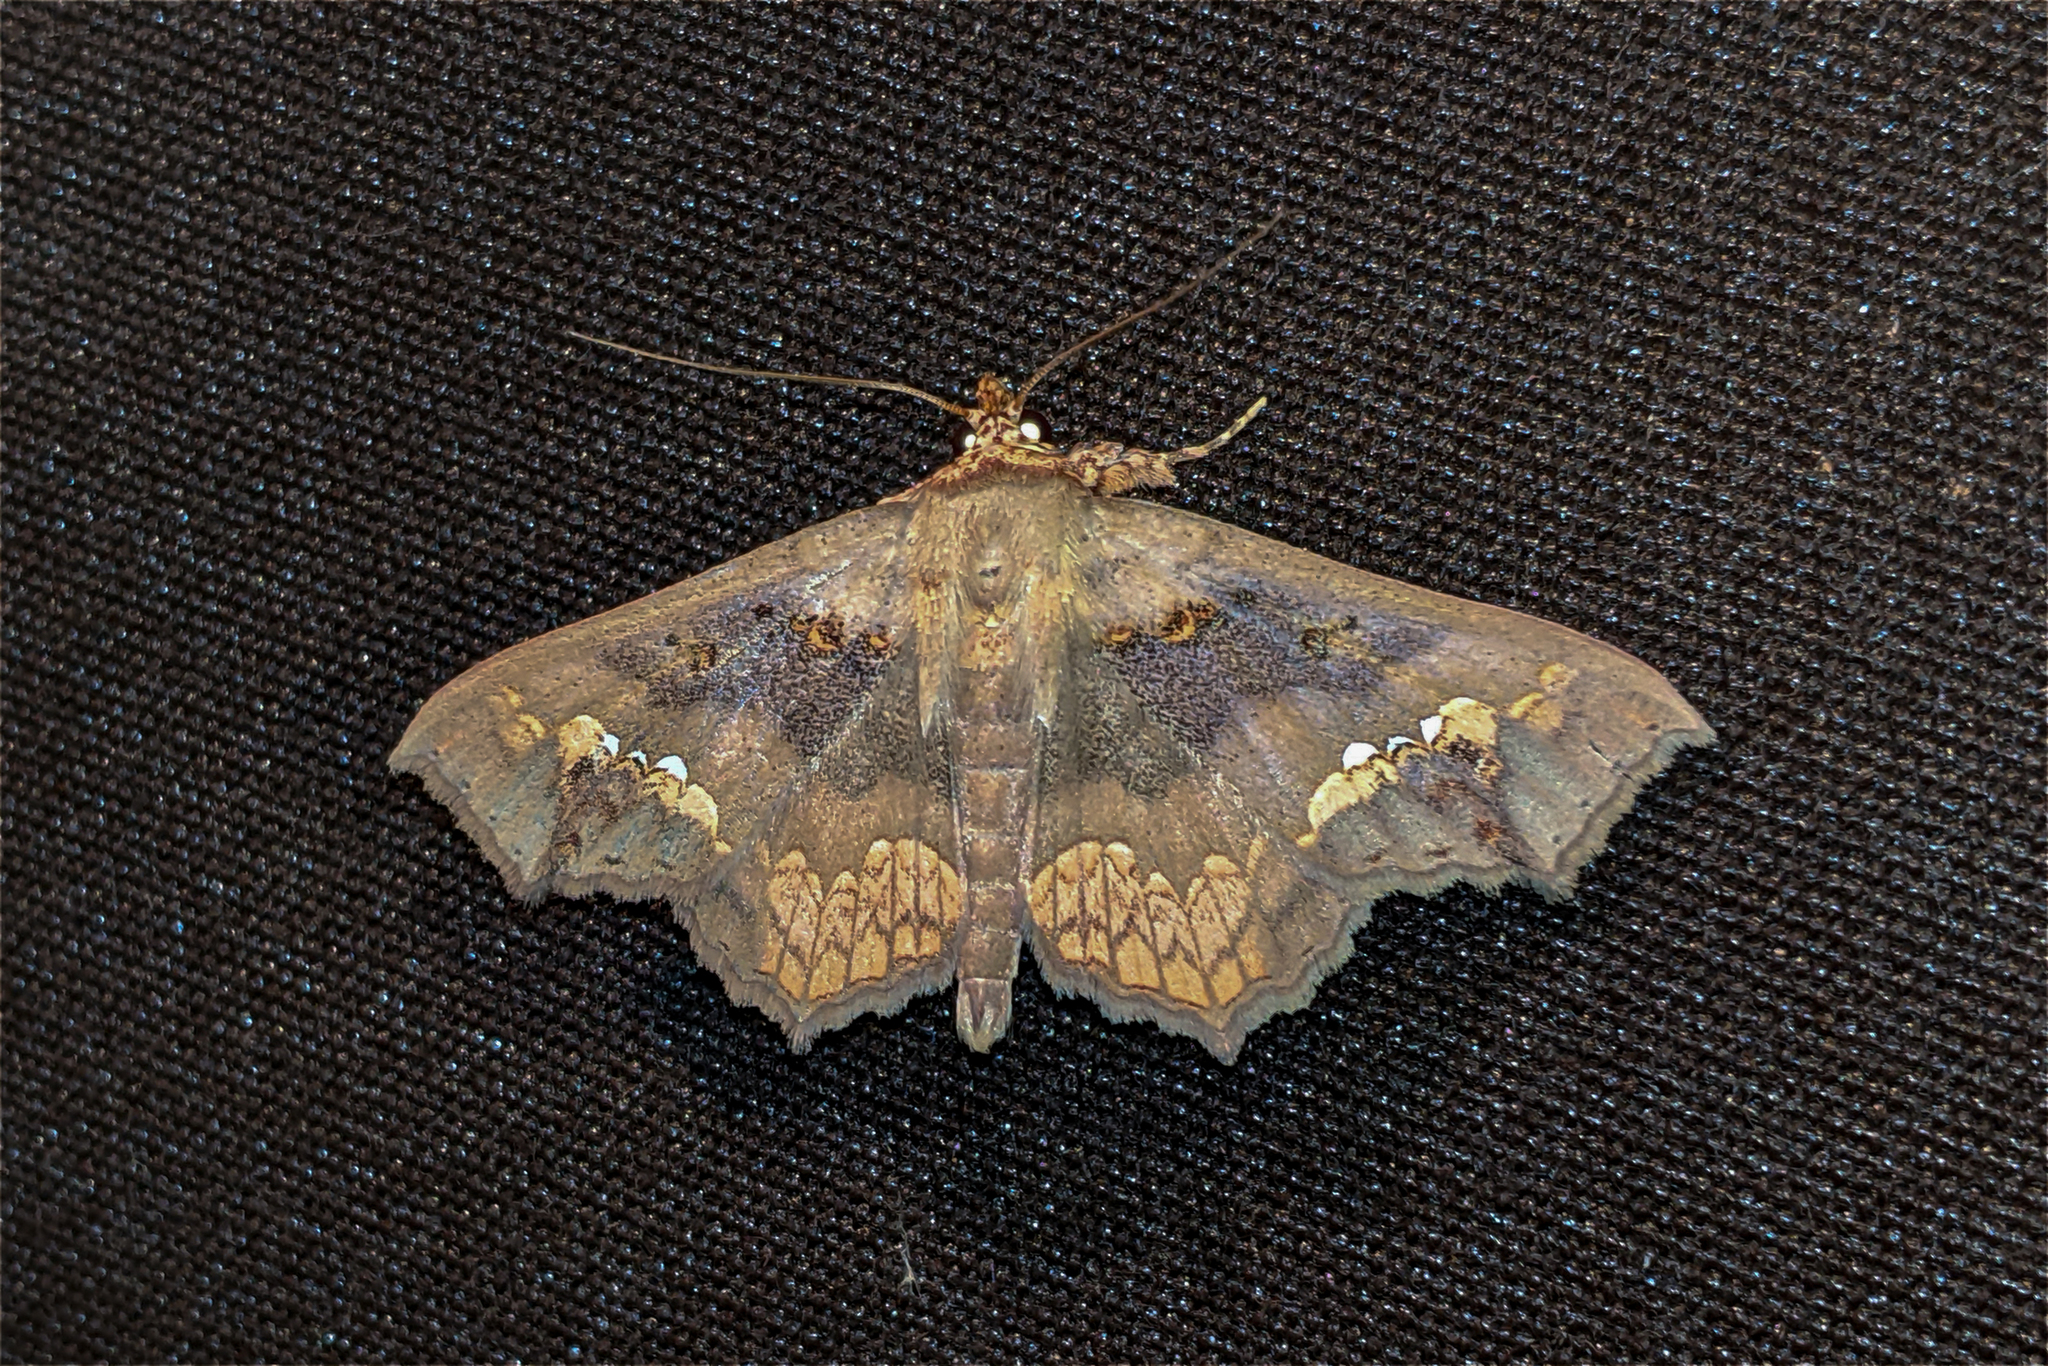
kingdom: Animalia
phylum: Arthropoda
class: Insecta
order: Lepidoptera
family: Erebidae
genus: Lopharthrum
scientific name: Lopharthrum comprimens
